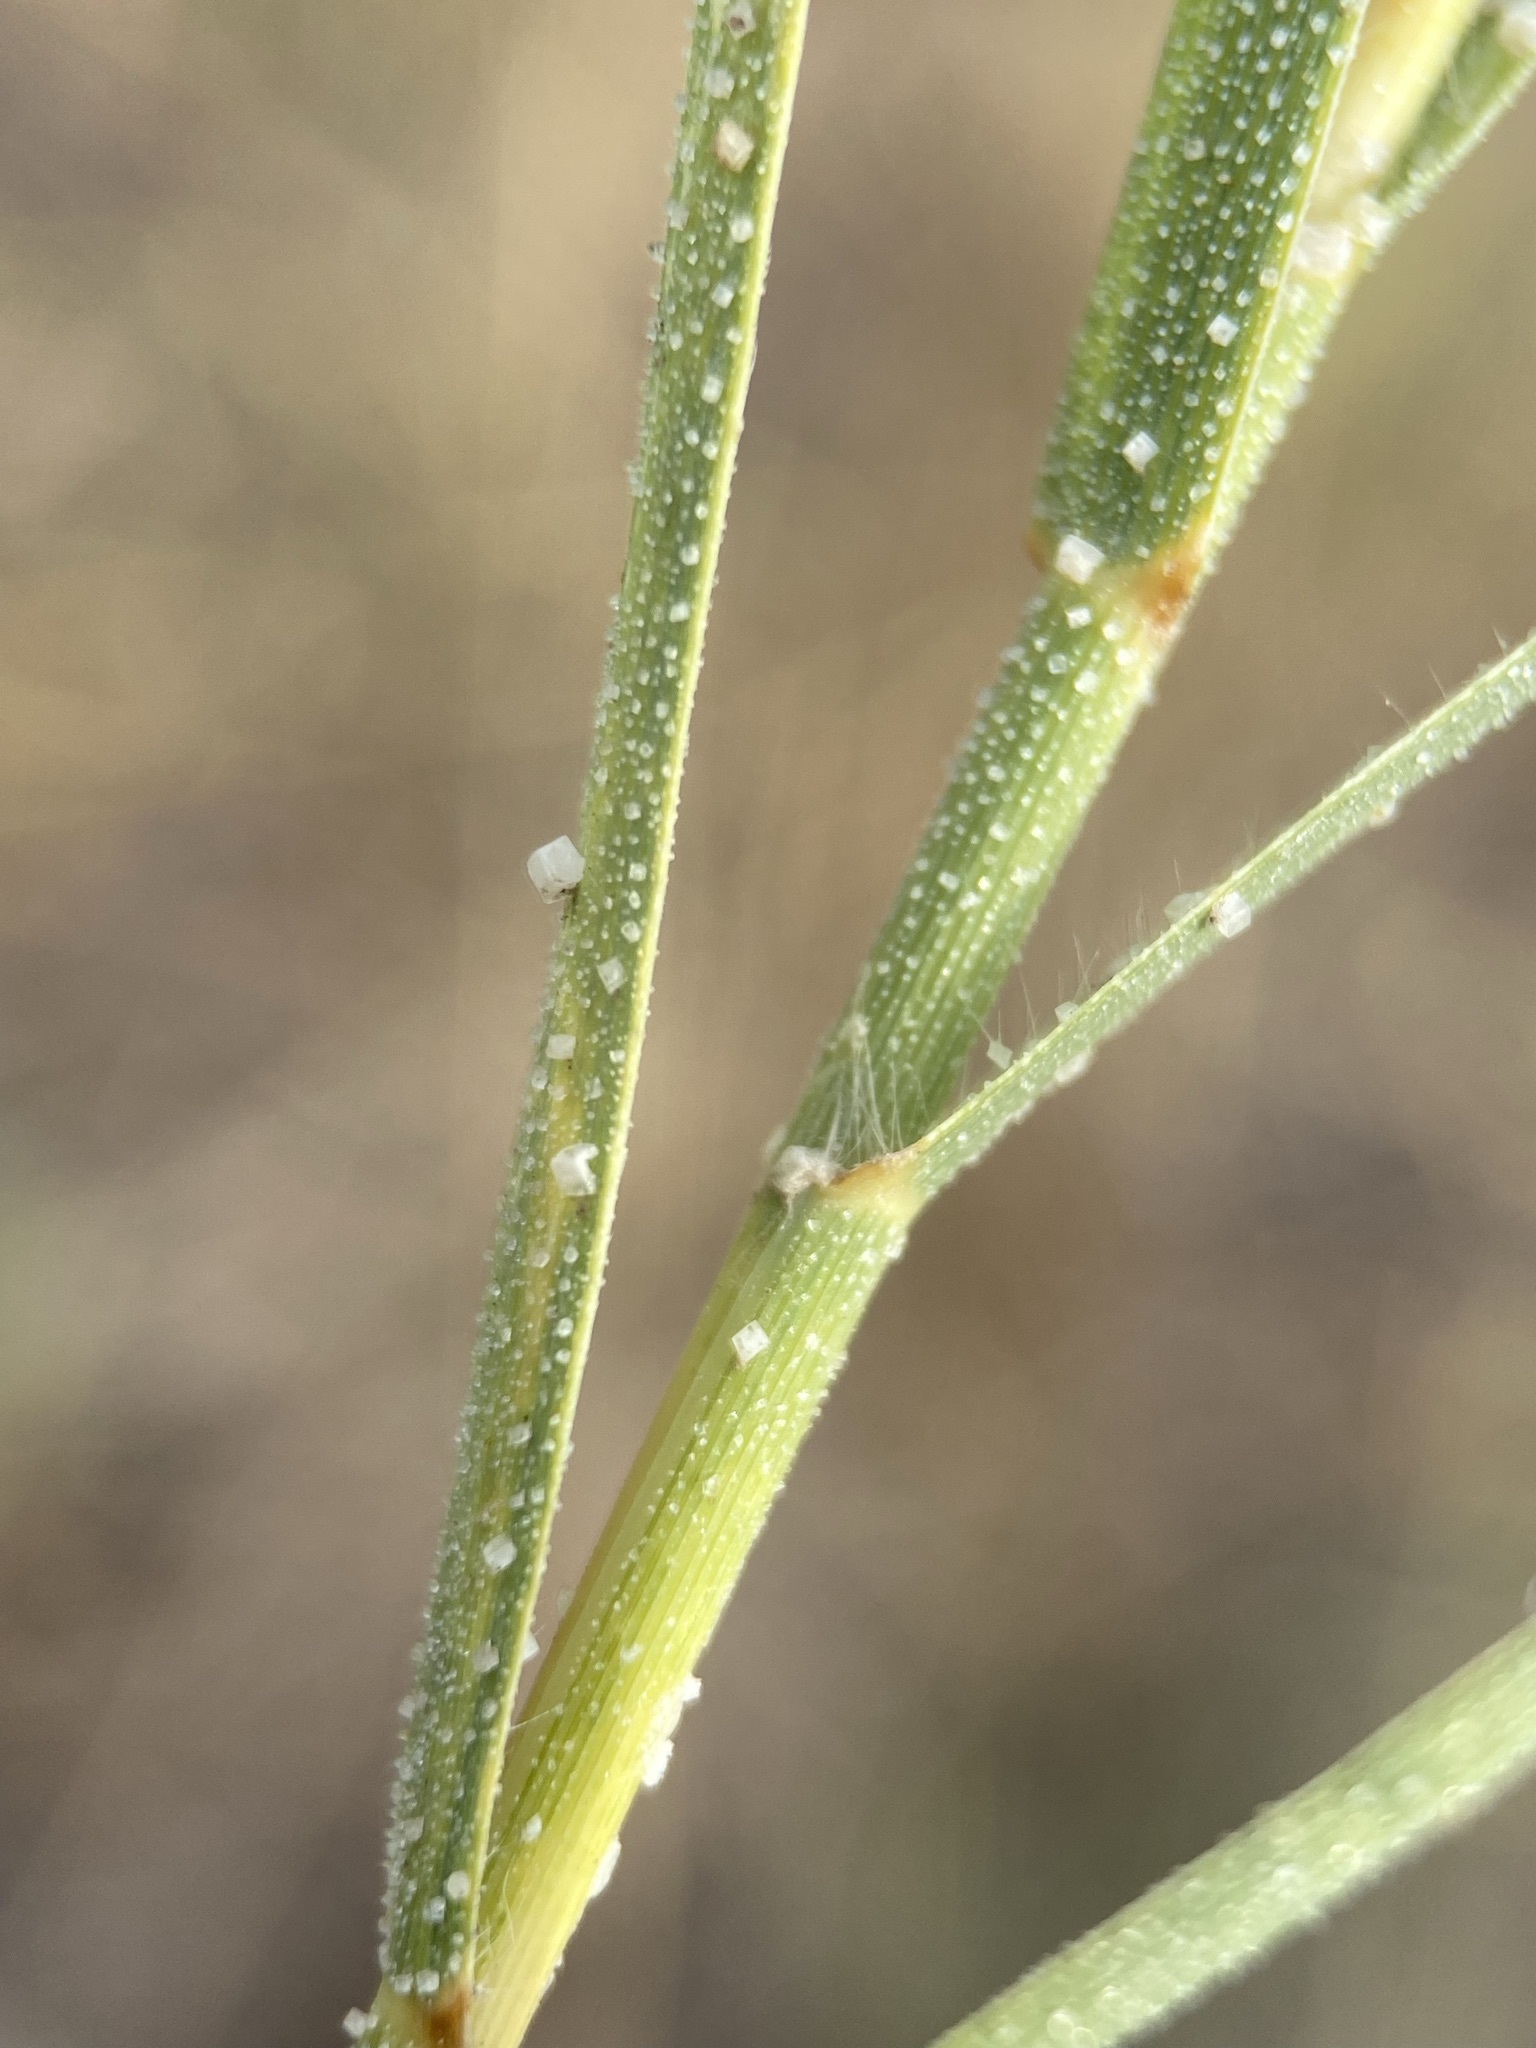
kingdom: Plantae
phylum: Tracheophyta
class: Liliopsida
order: Poales
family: Poaceae
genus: Distichlis
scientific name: Distichlis spicata
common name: Saltgrass
